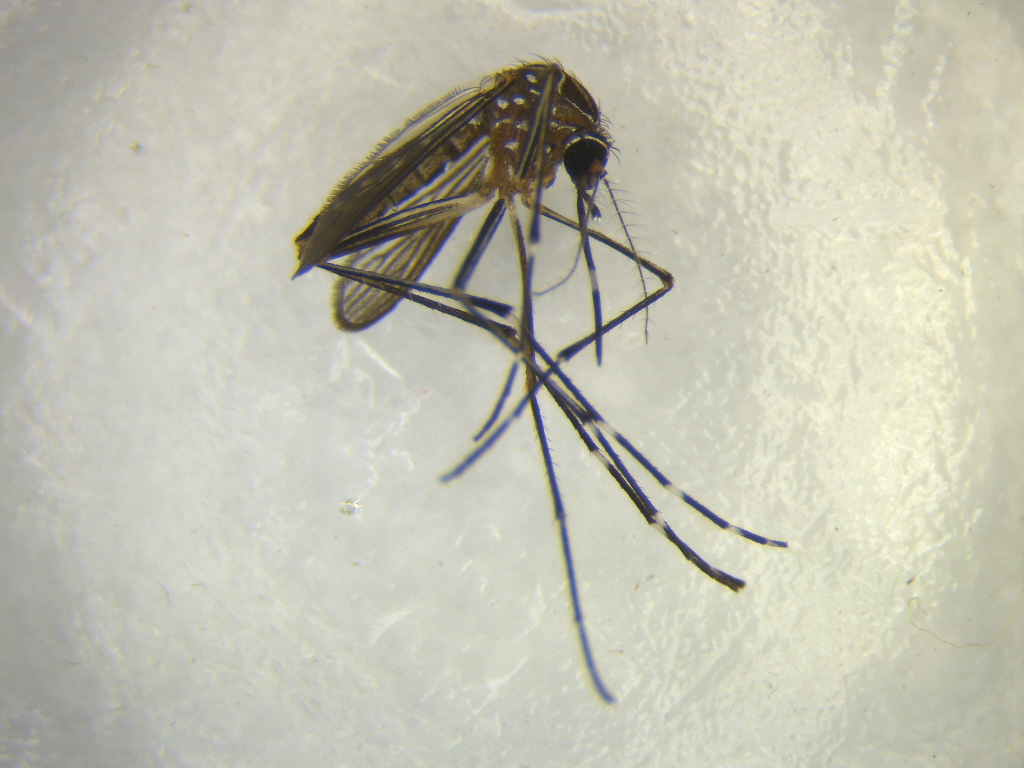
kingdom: Animalia
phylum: Arthropoda
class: Insecta
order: Diptera
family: Culicidae
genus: Aedes
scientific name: Aedes notoscriptus
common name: Australian backyard mosquito
